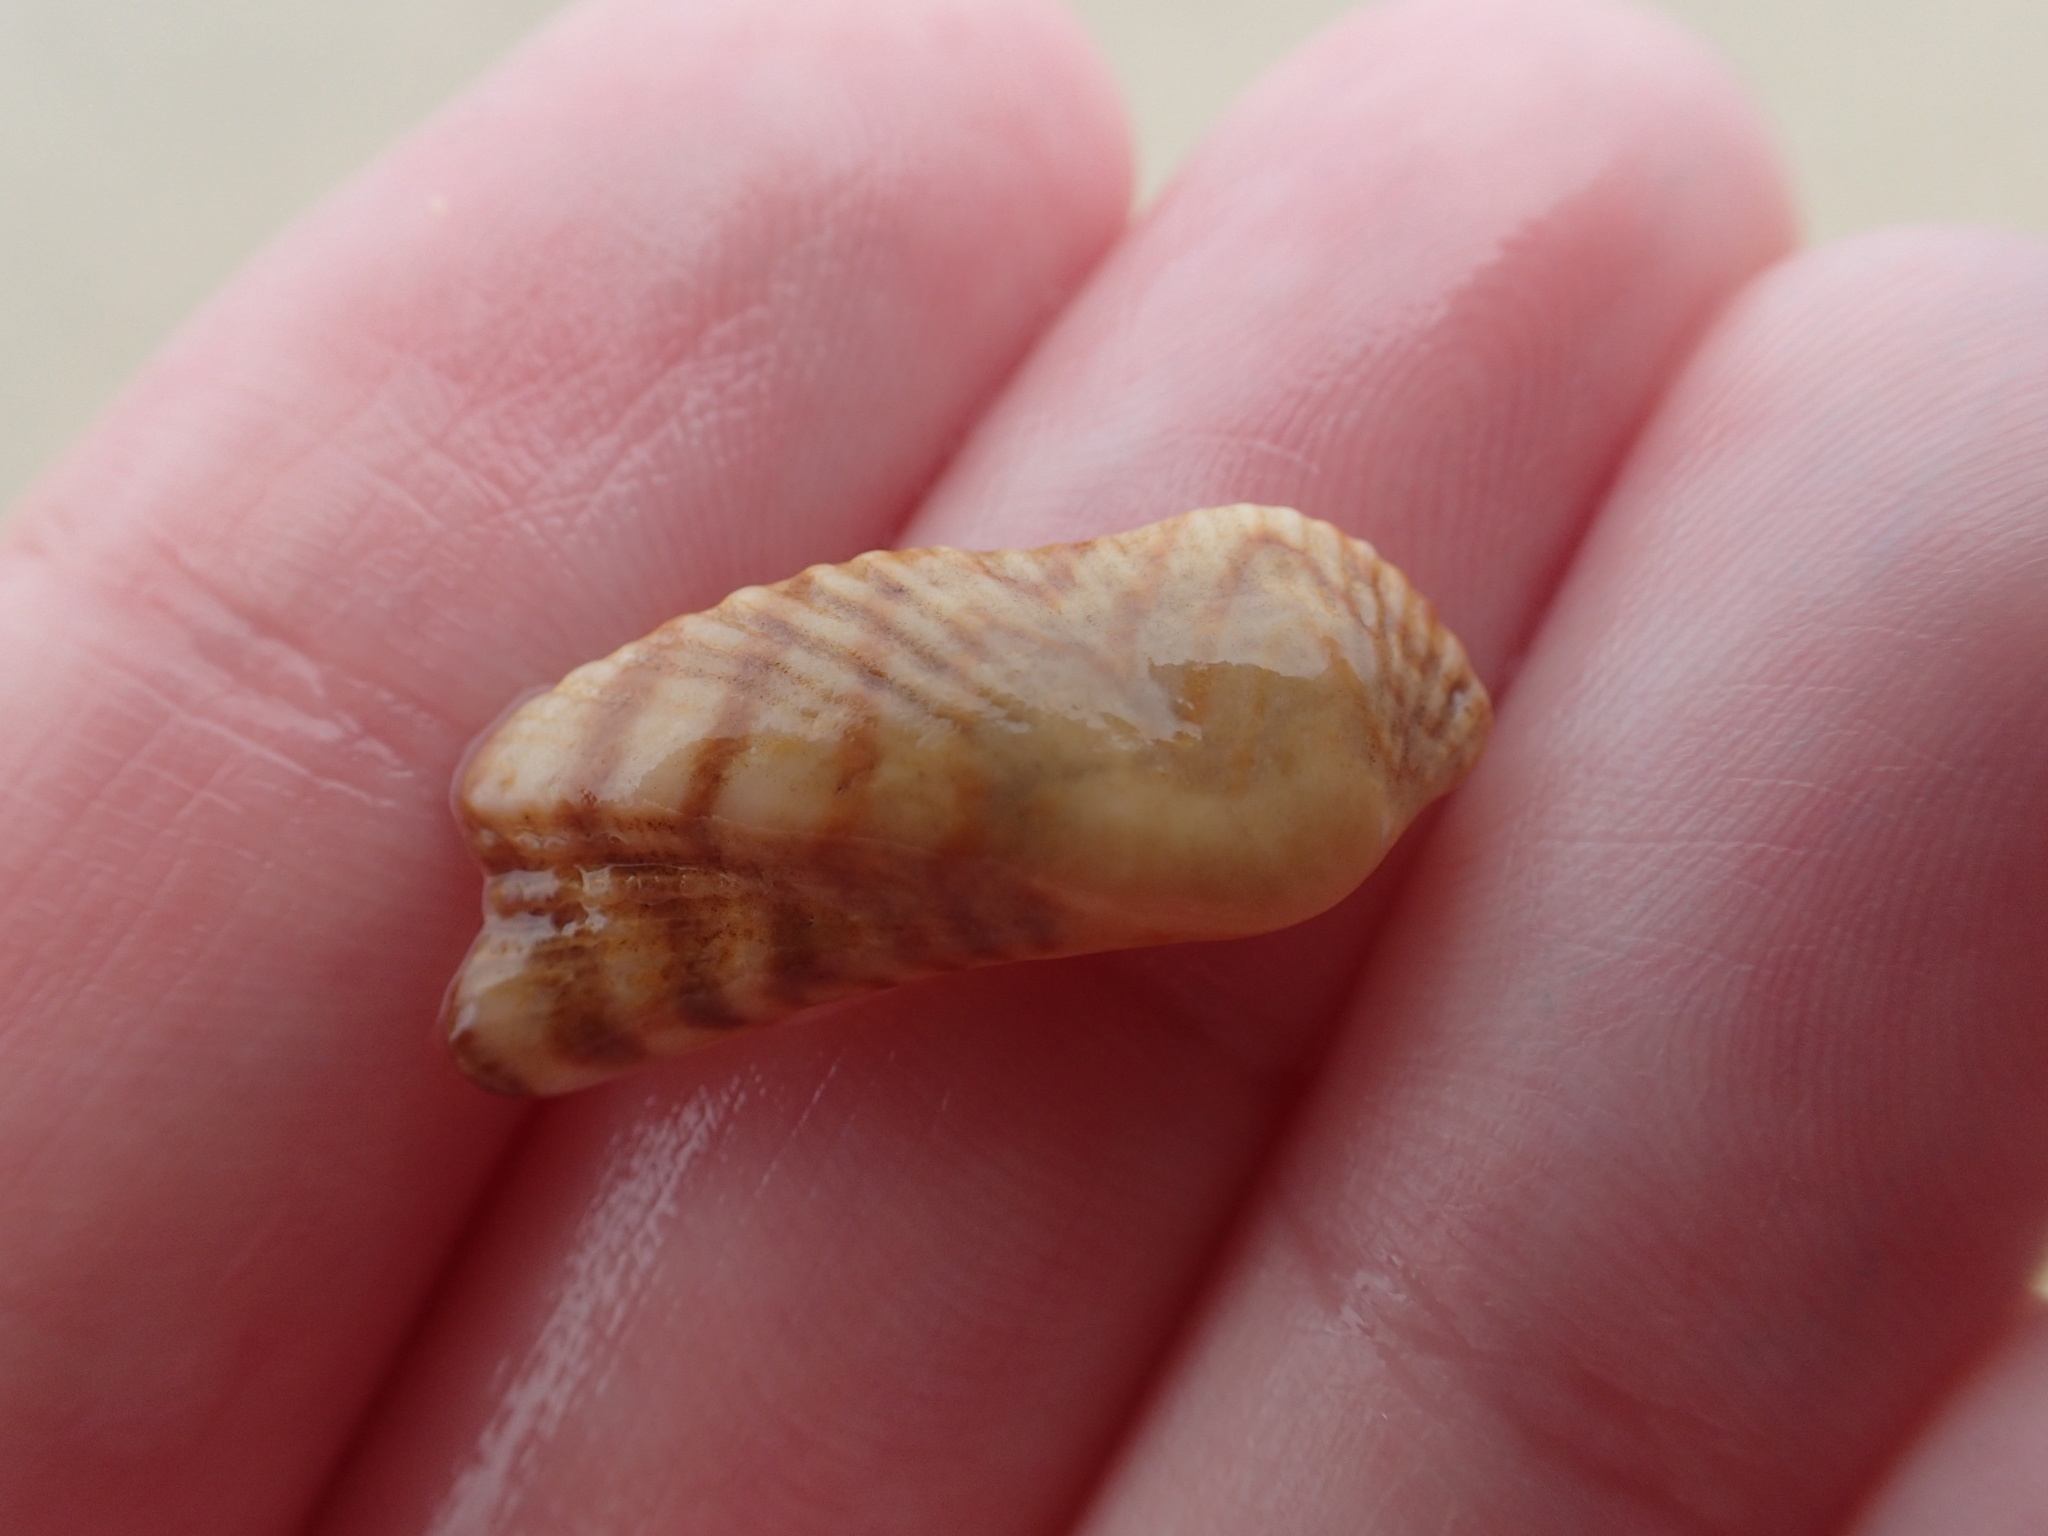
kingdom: Animalia
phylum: Mollusca
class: Bivalvia
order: Arcida
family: Arcidae
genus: Arca
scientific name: Arca zebra
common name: Atlantic turkey wing
